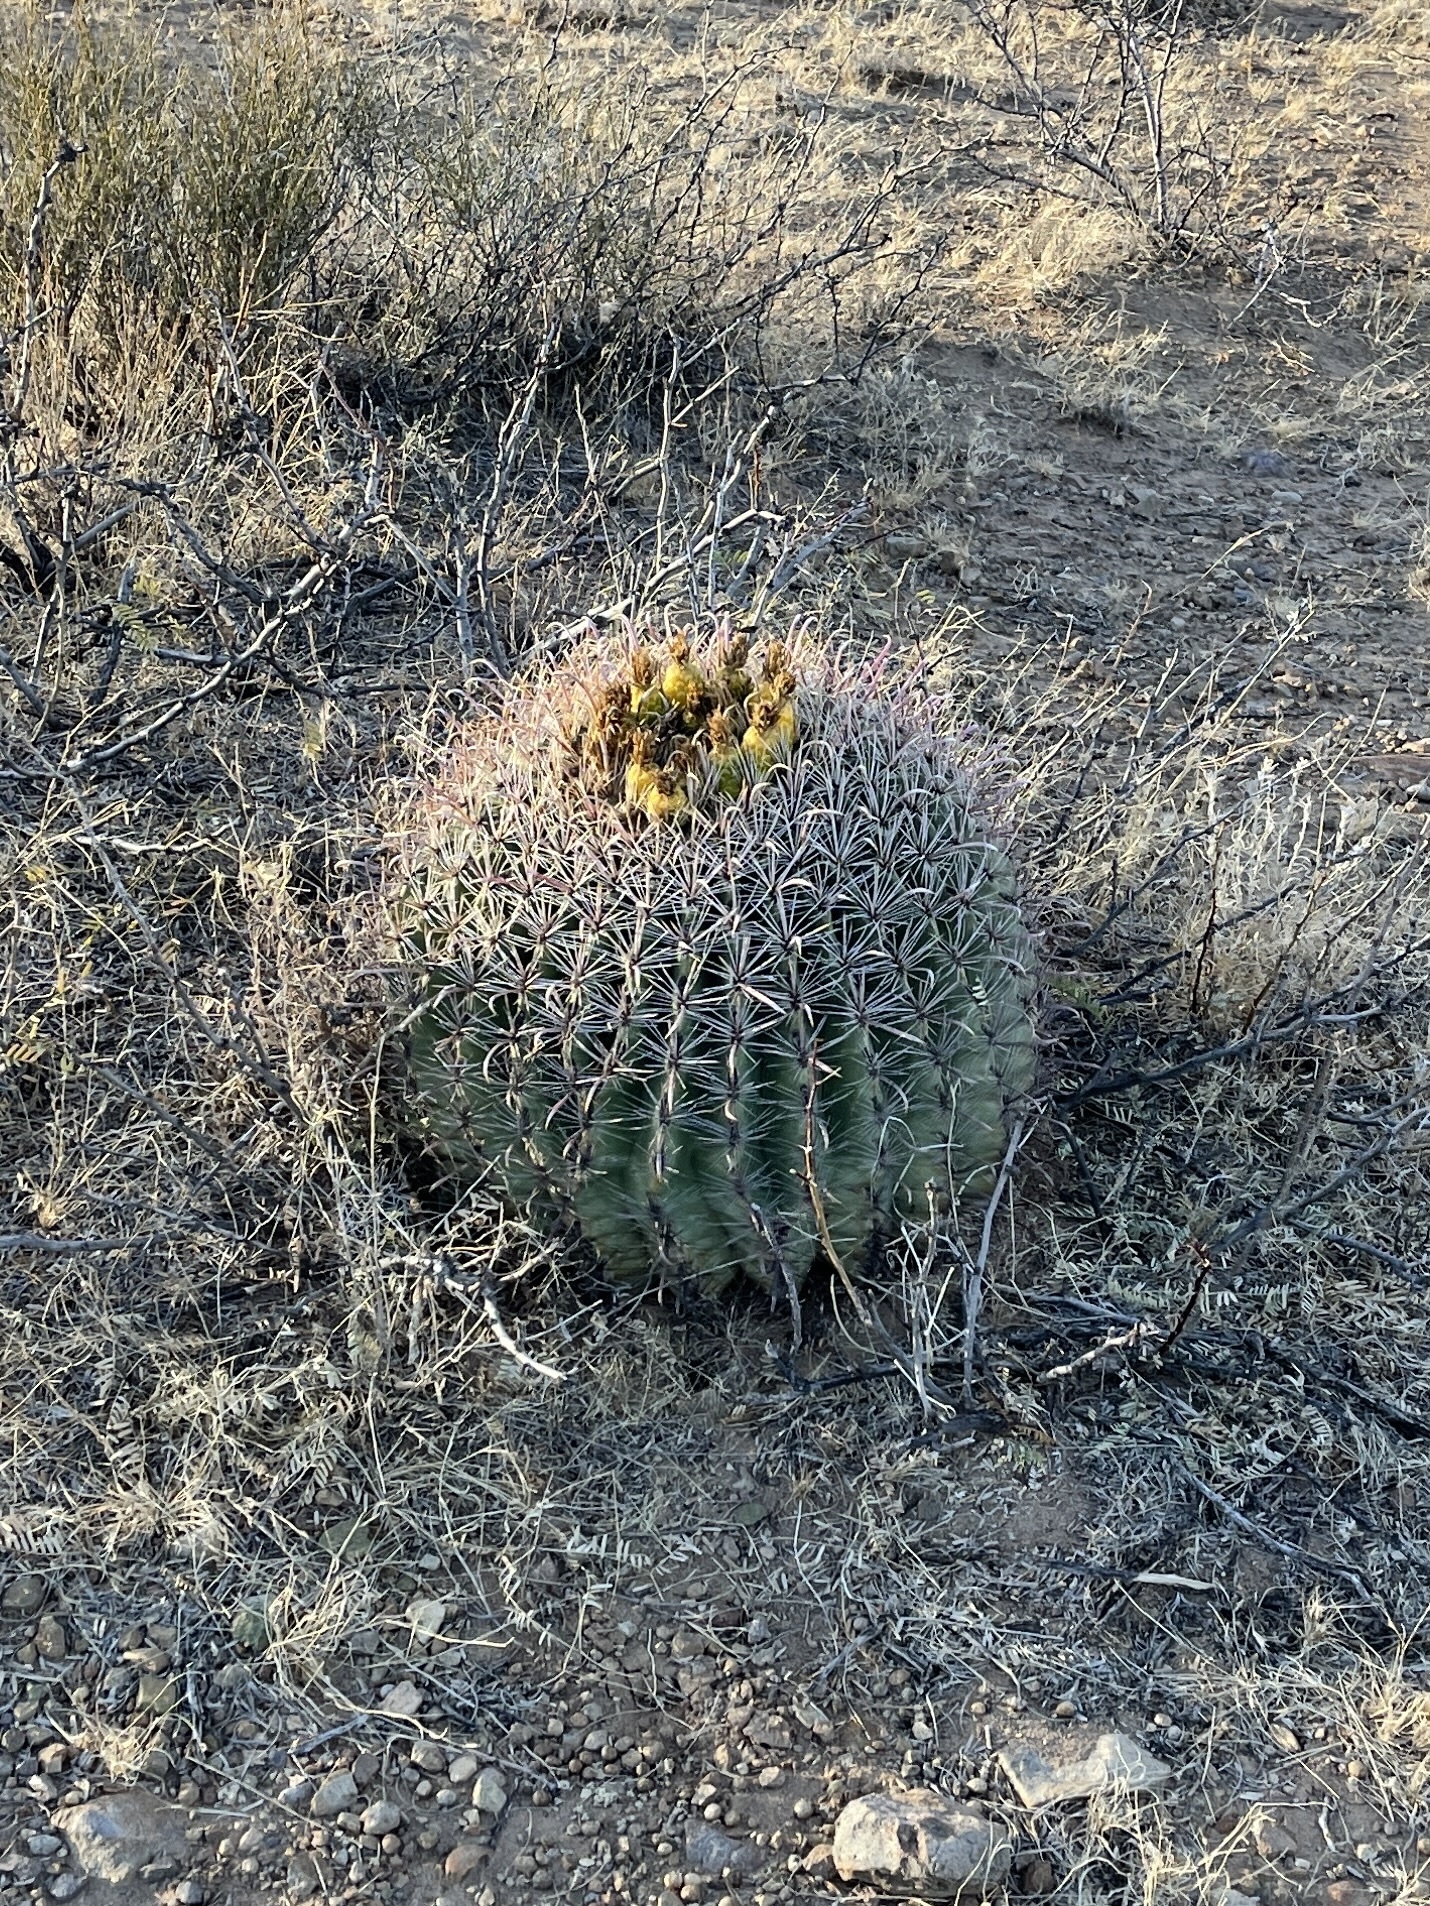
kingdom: Plantae
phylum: Tracheophyta
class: Magnoliopsida
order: Caryophyllales
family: Cactaceae
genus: Ferocactus
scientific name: Ferocactus wislizeni
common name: Candy barrel cactus
